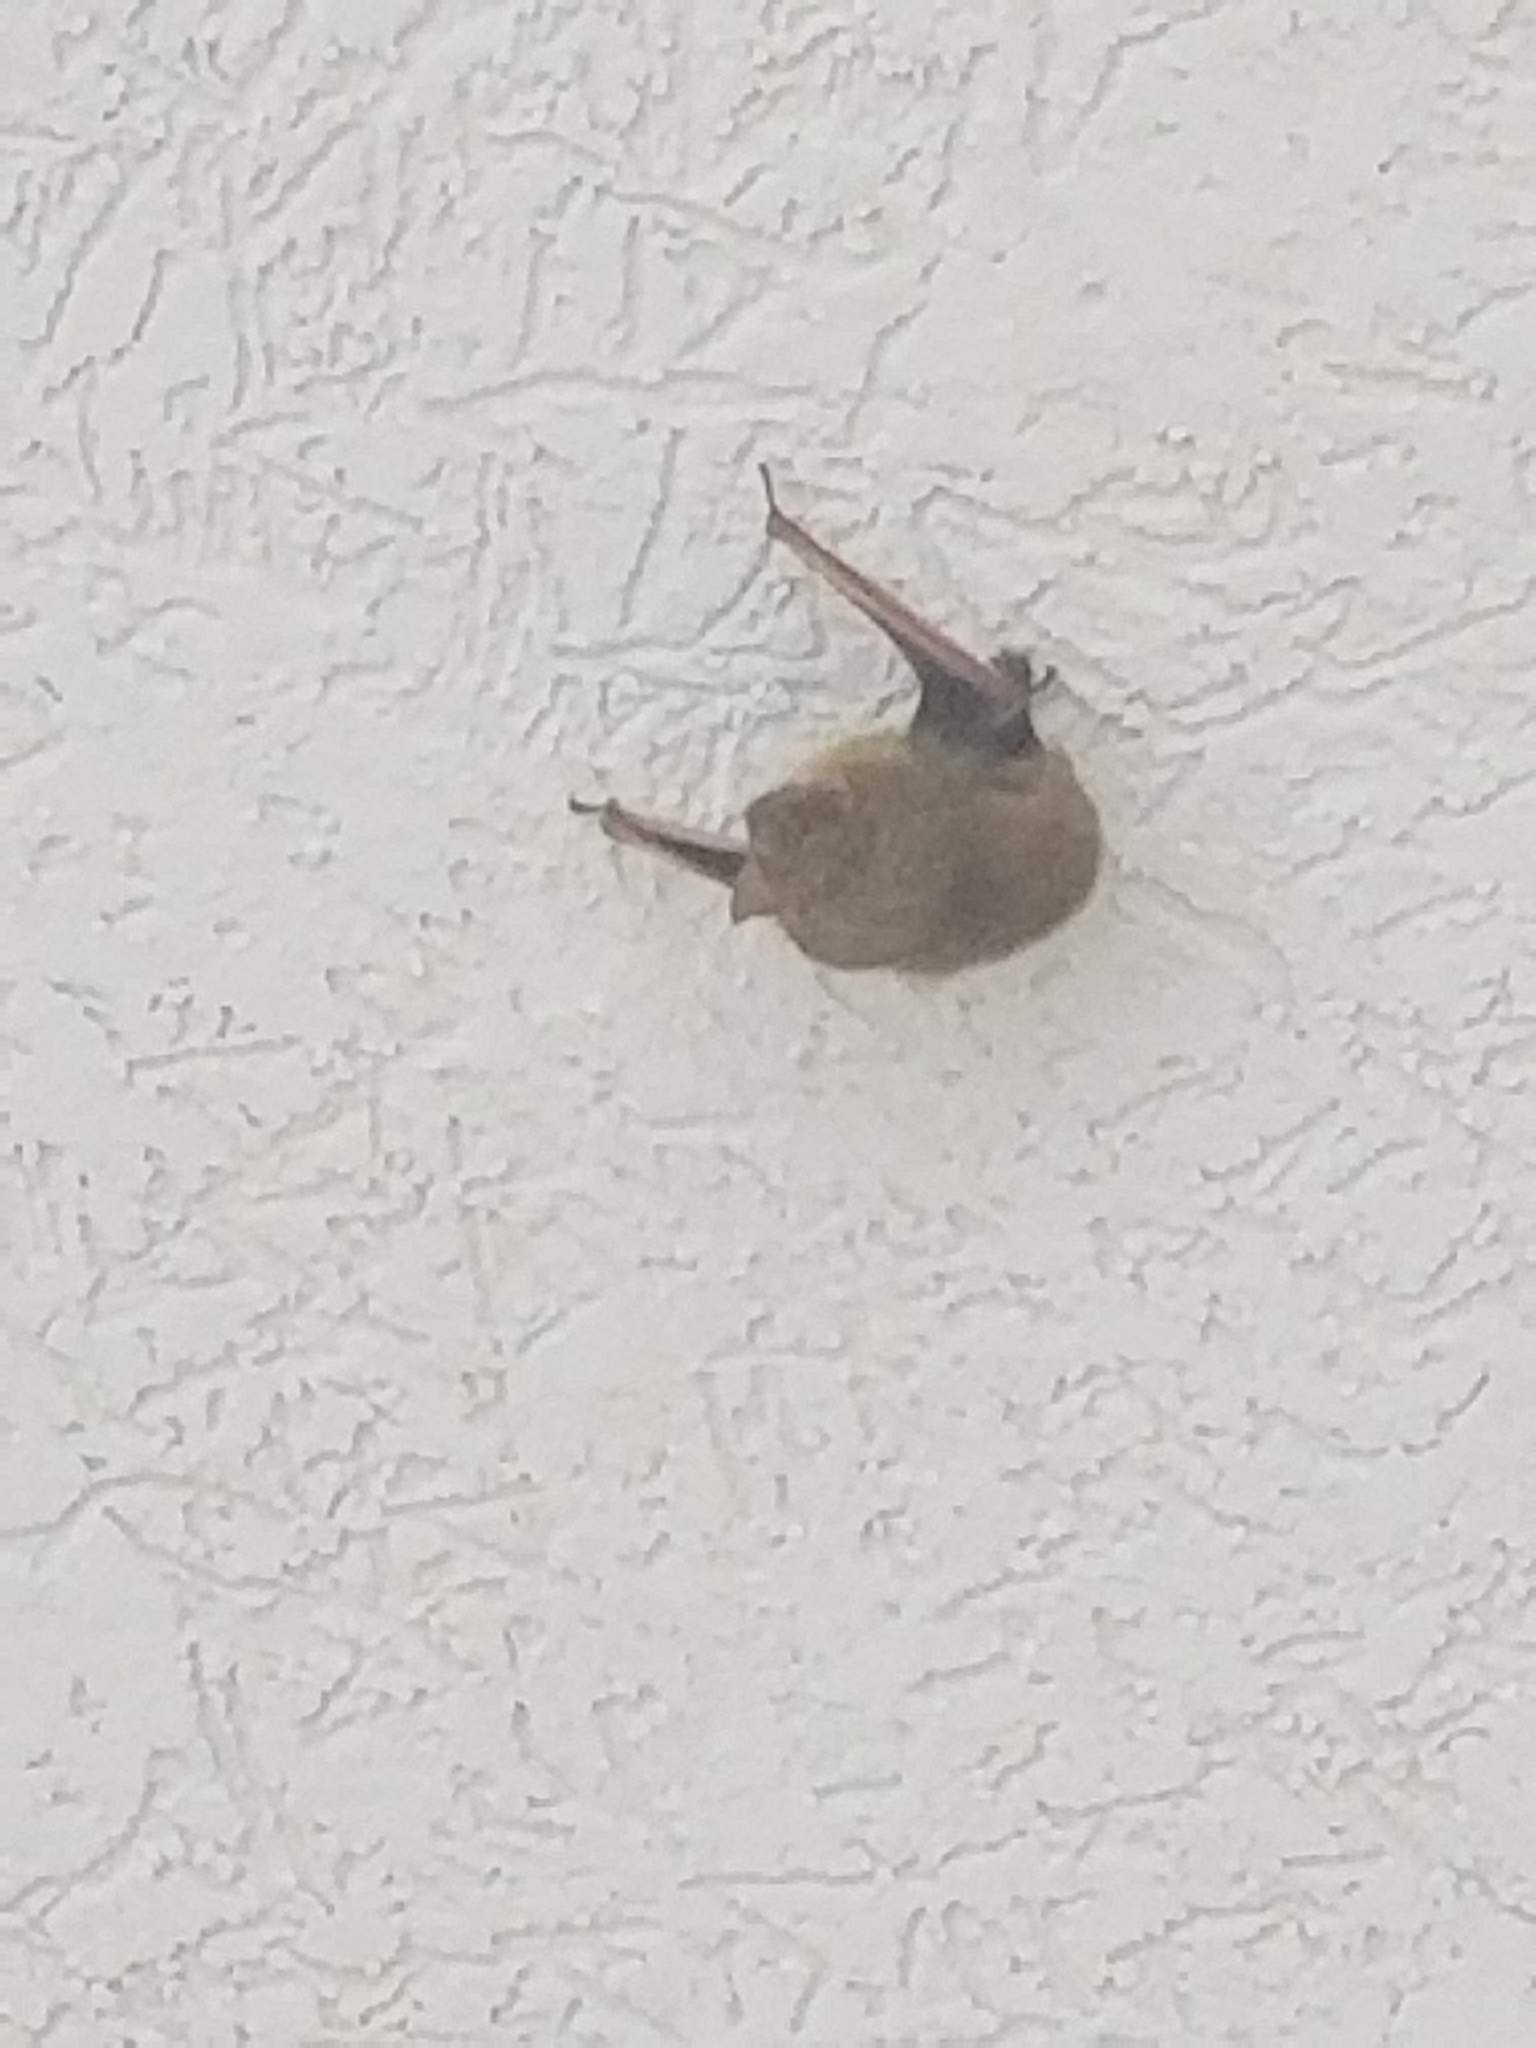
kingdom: Animalia
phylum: Chordata
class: Mammalia
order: Chiroptera
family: Vespertilionidae
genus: Perimyotis
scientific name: Perimyotis subflavus
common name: Eastern pipistrelle
